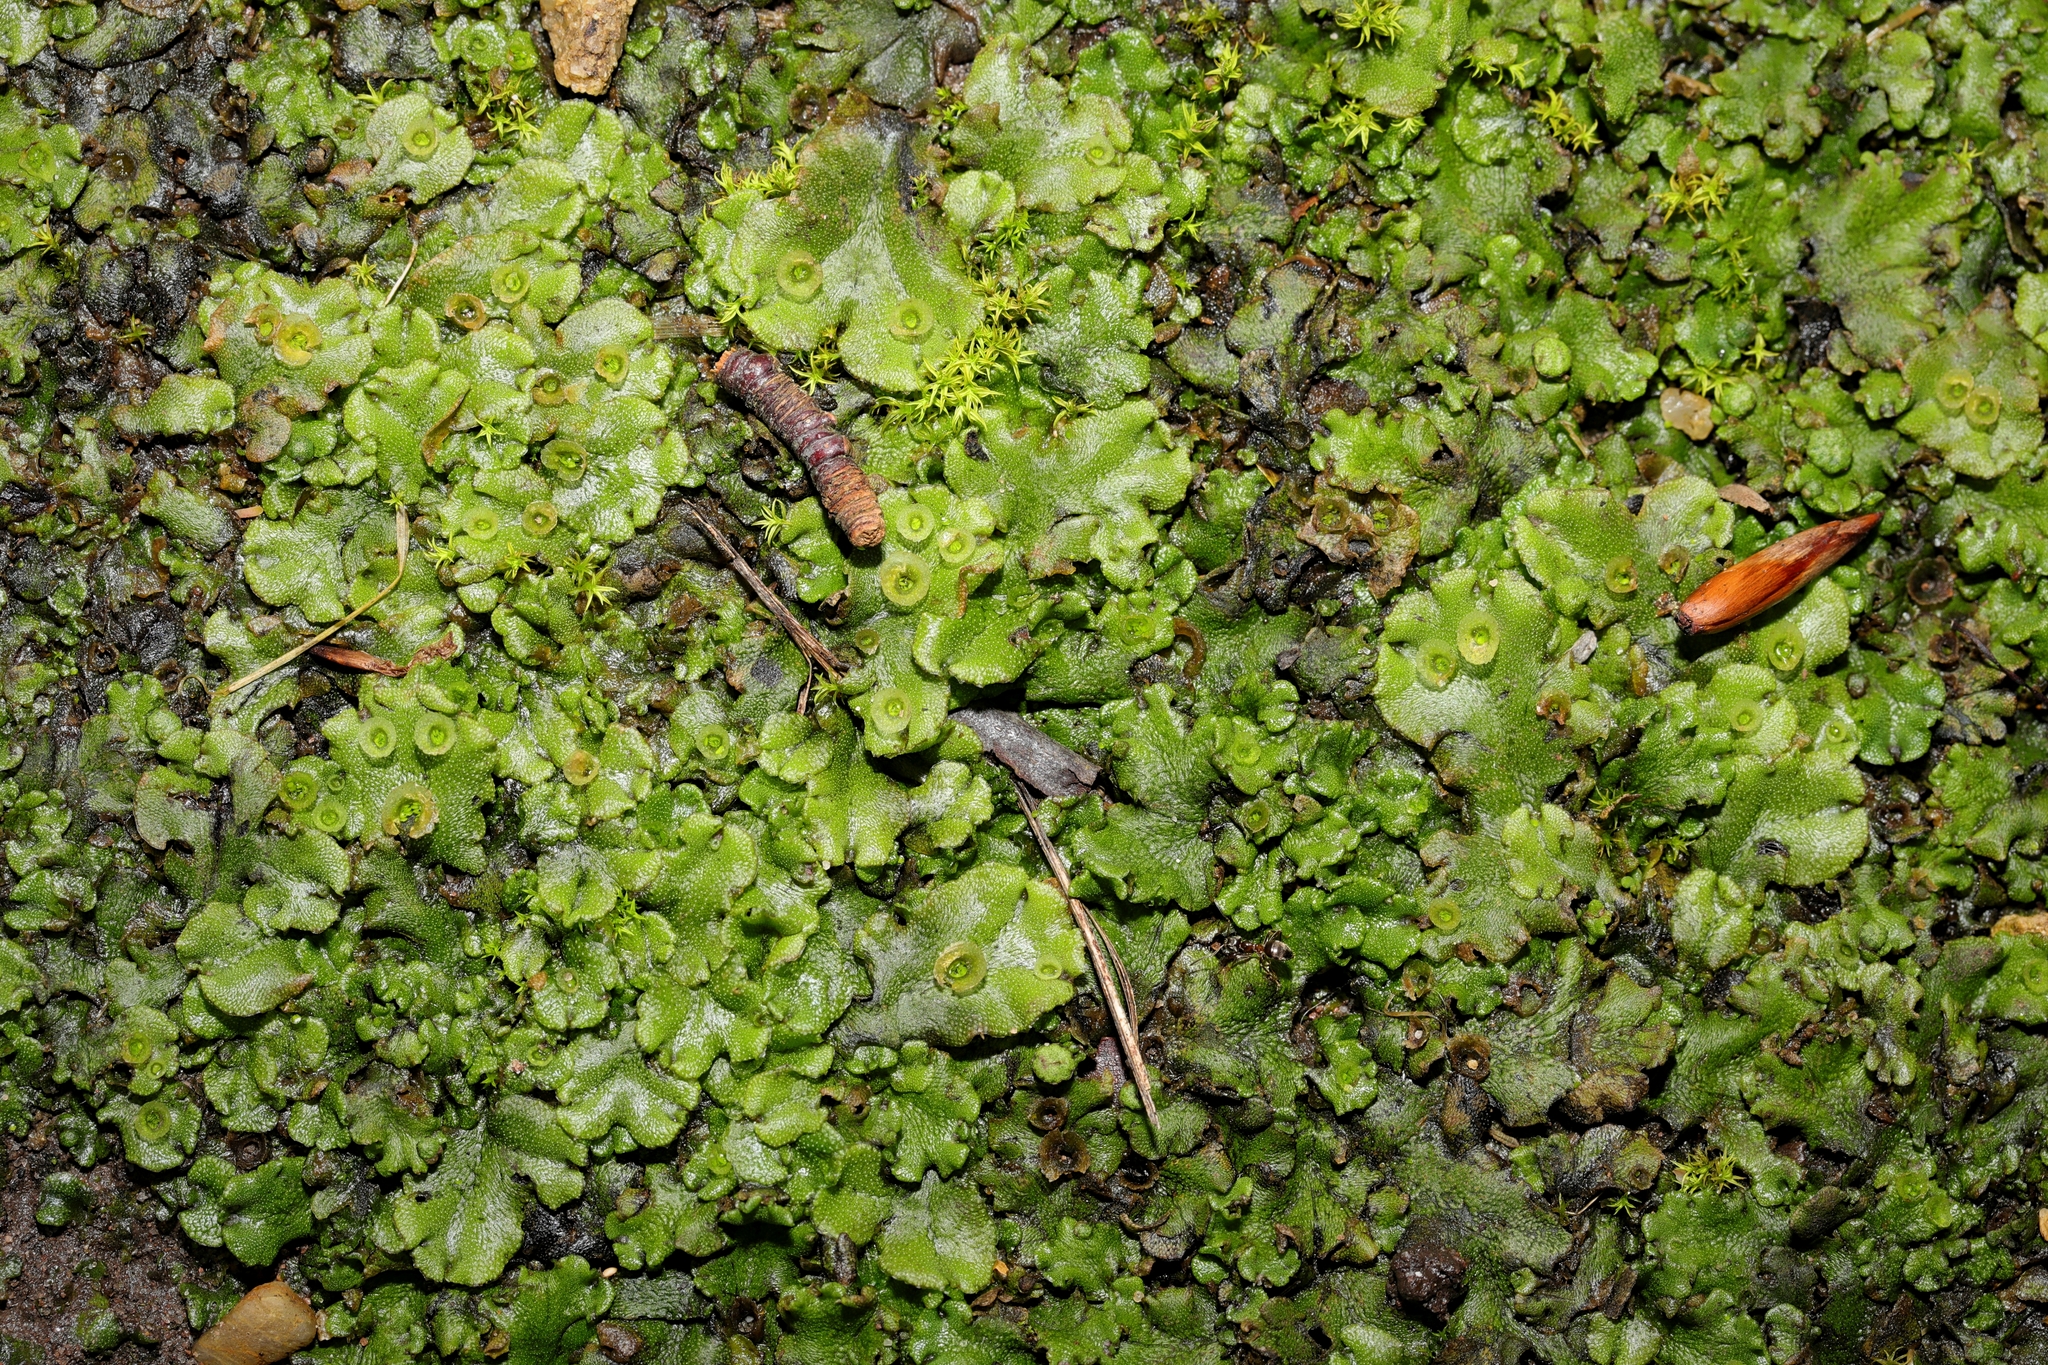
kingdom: Plantae
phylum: Marchantiophyta
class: Marchantiopsida
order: Marchantiales
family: Marchantiaceae
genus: Marchantia
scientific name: Marchantia polymorpha
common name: Common liverwort
